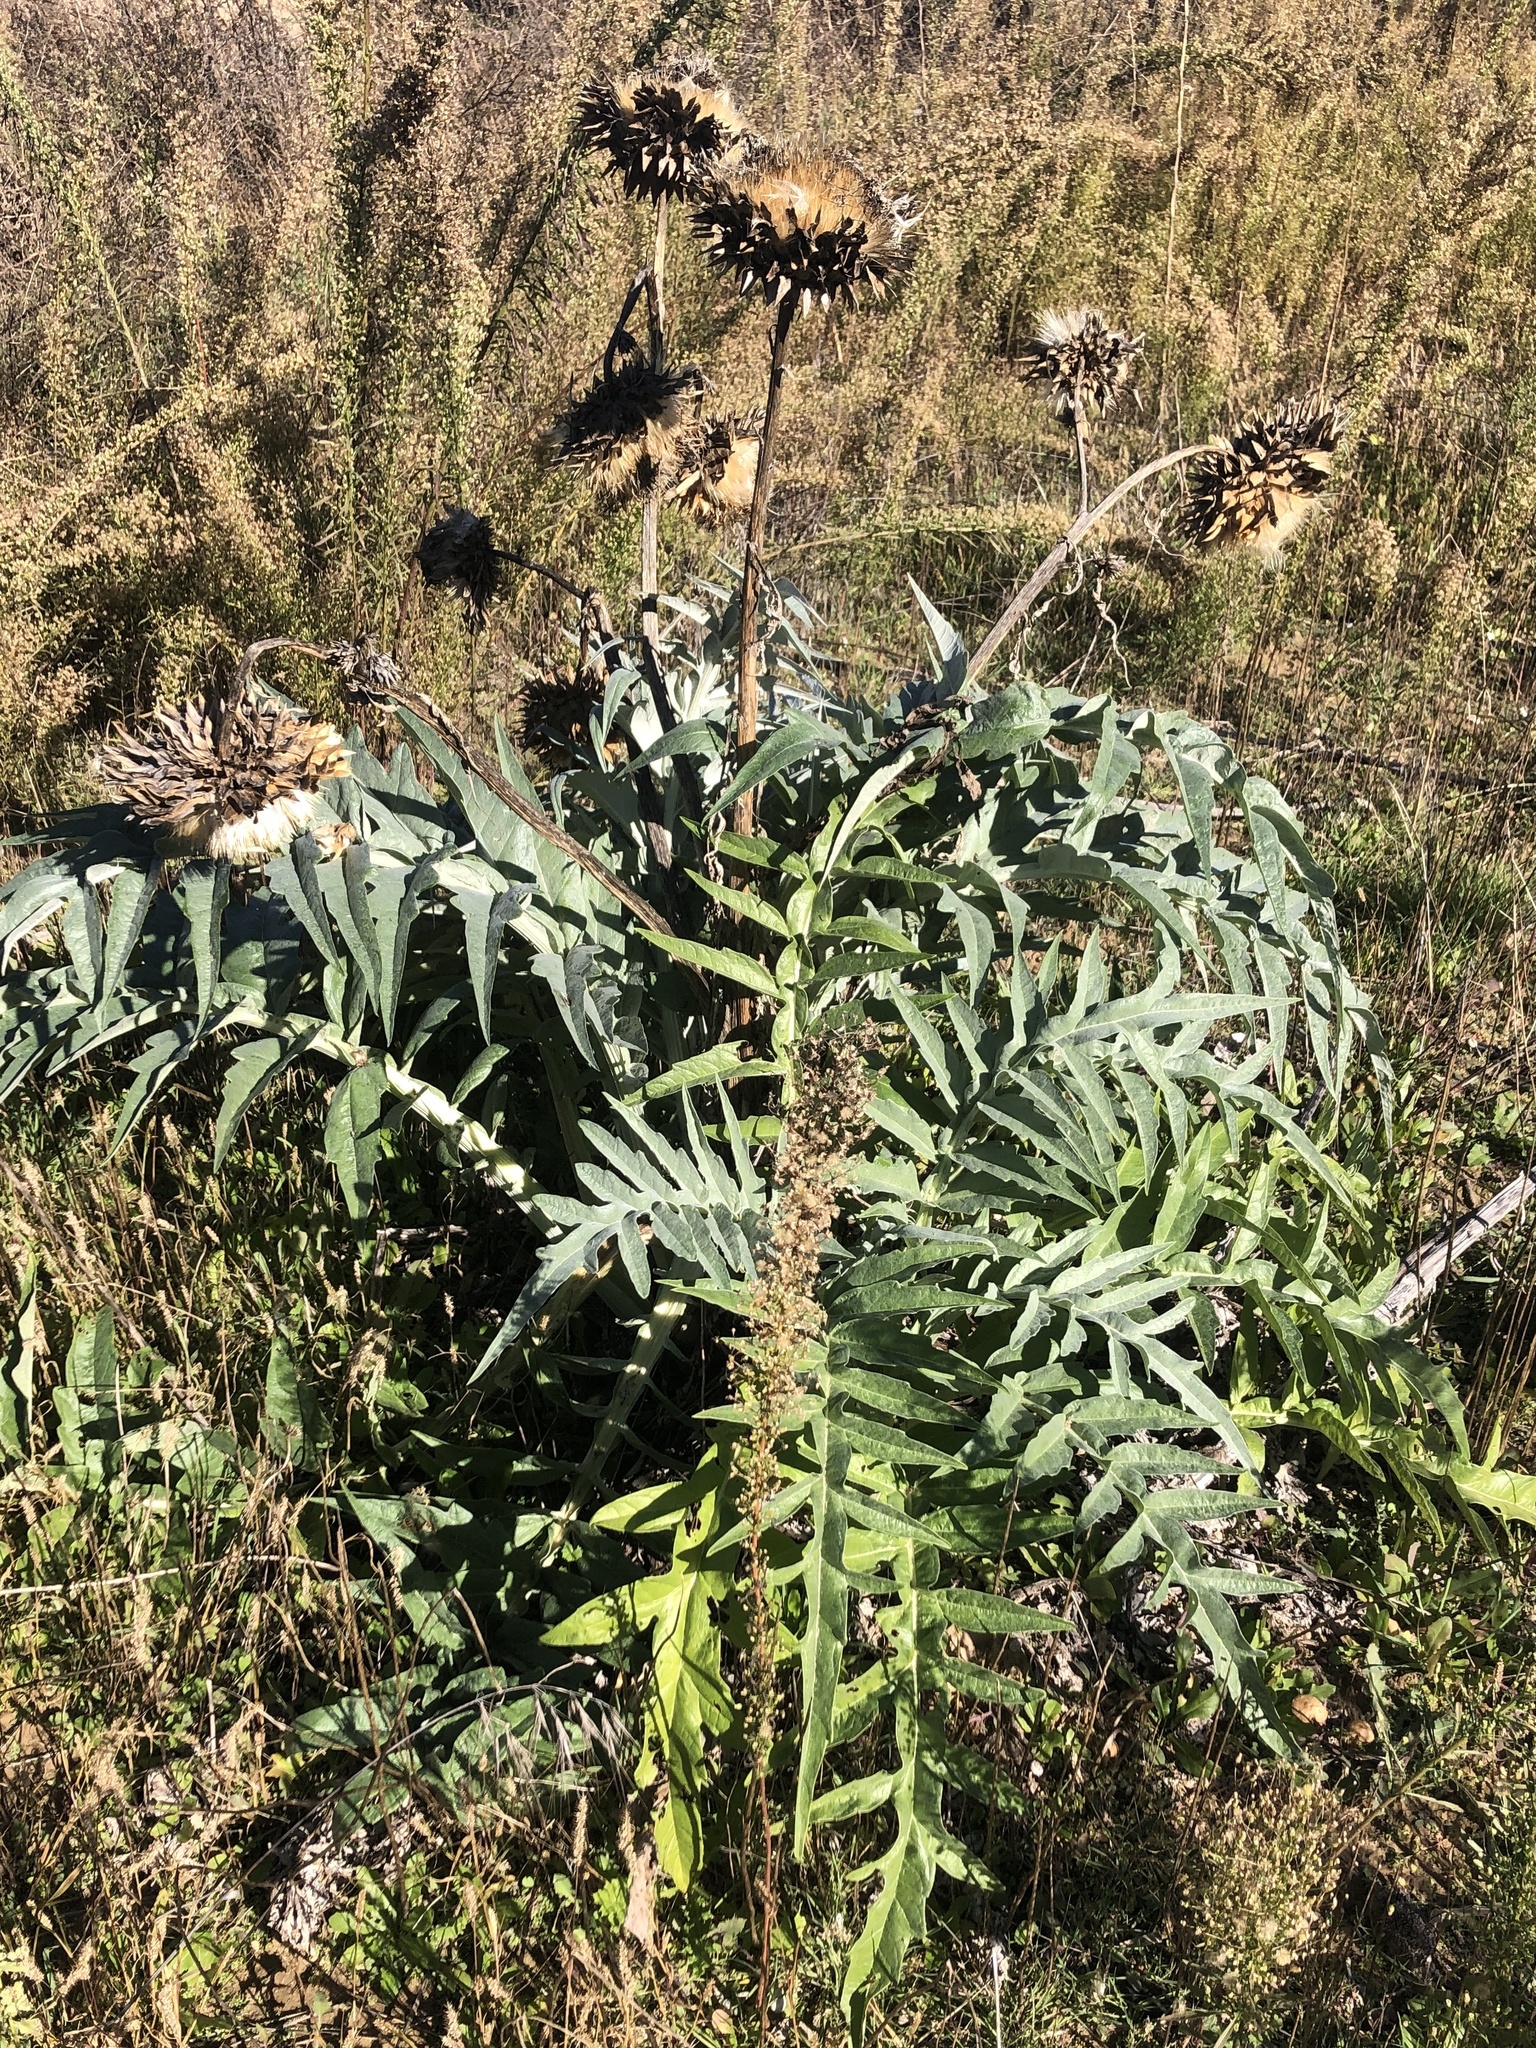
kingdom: Plantae
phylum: Tracheophyta
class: Magnoliopsida
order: Asterales
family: Asteraceae
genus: Cynara
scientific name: Cynara cardunculus
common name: Globe artichoke
